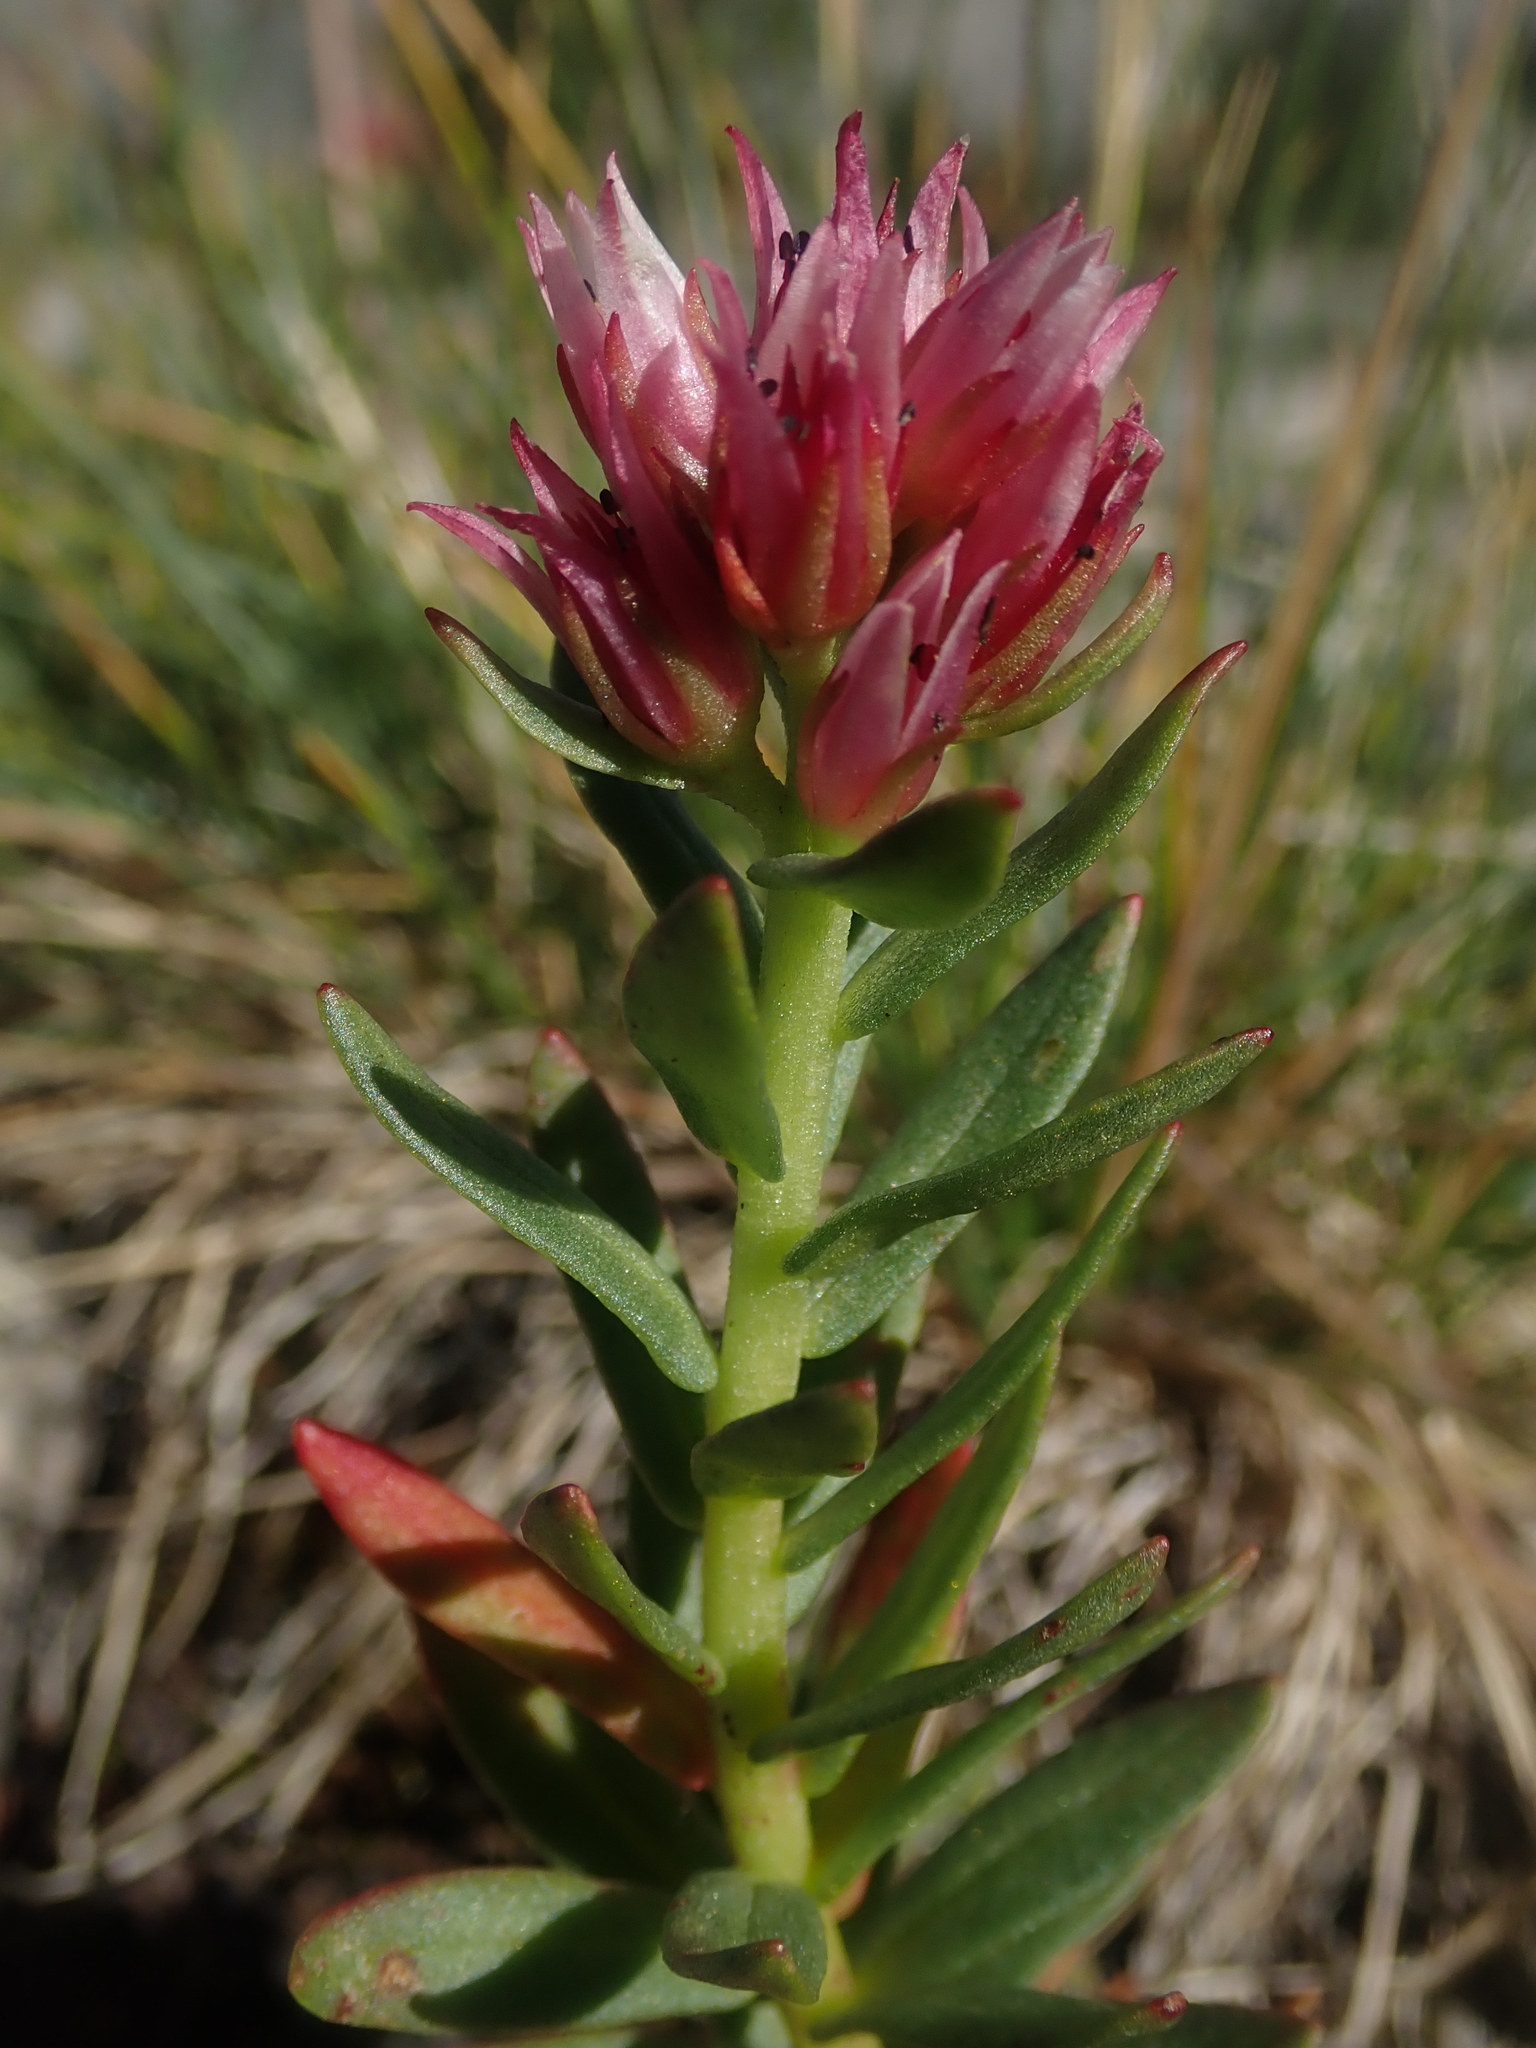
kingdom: Plantae
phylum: Tracheophyta
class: Magnoliopsida
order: Saxifragales
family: Crassulaceae
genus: Rhodiola
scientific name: Rhodiola rhodantha
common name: Red orpine
